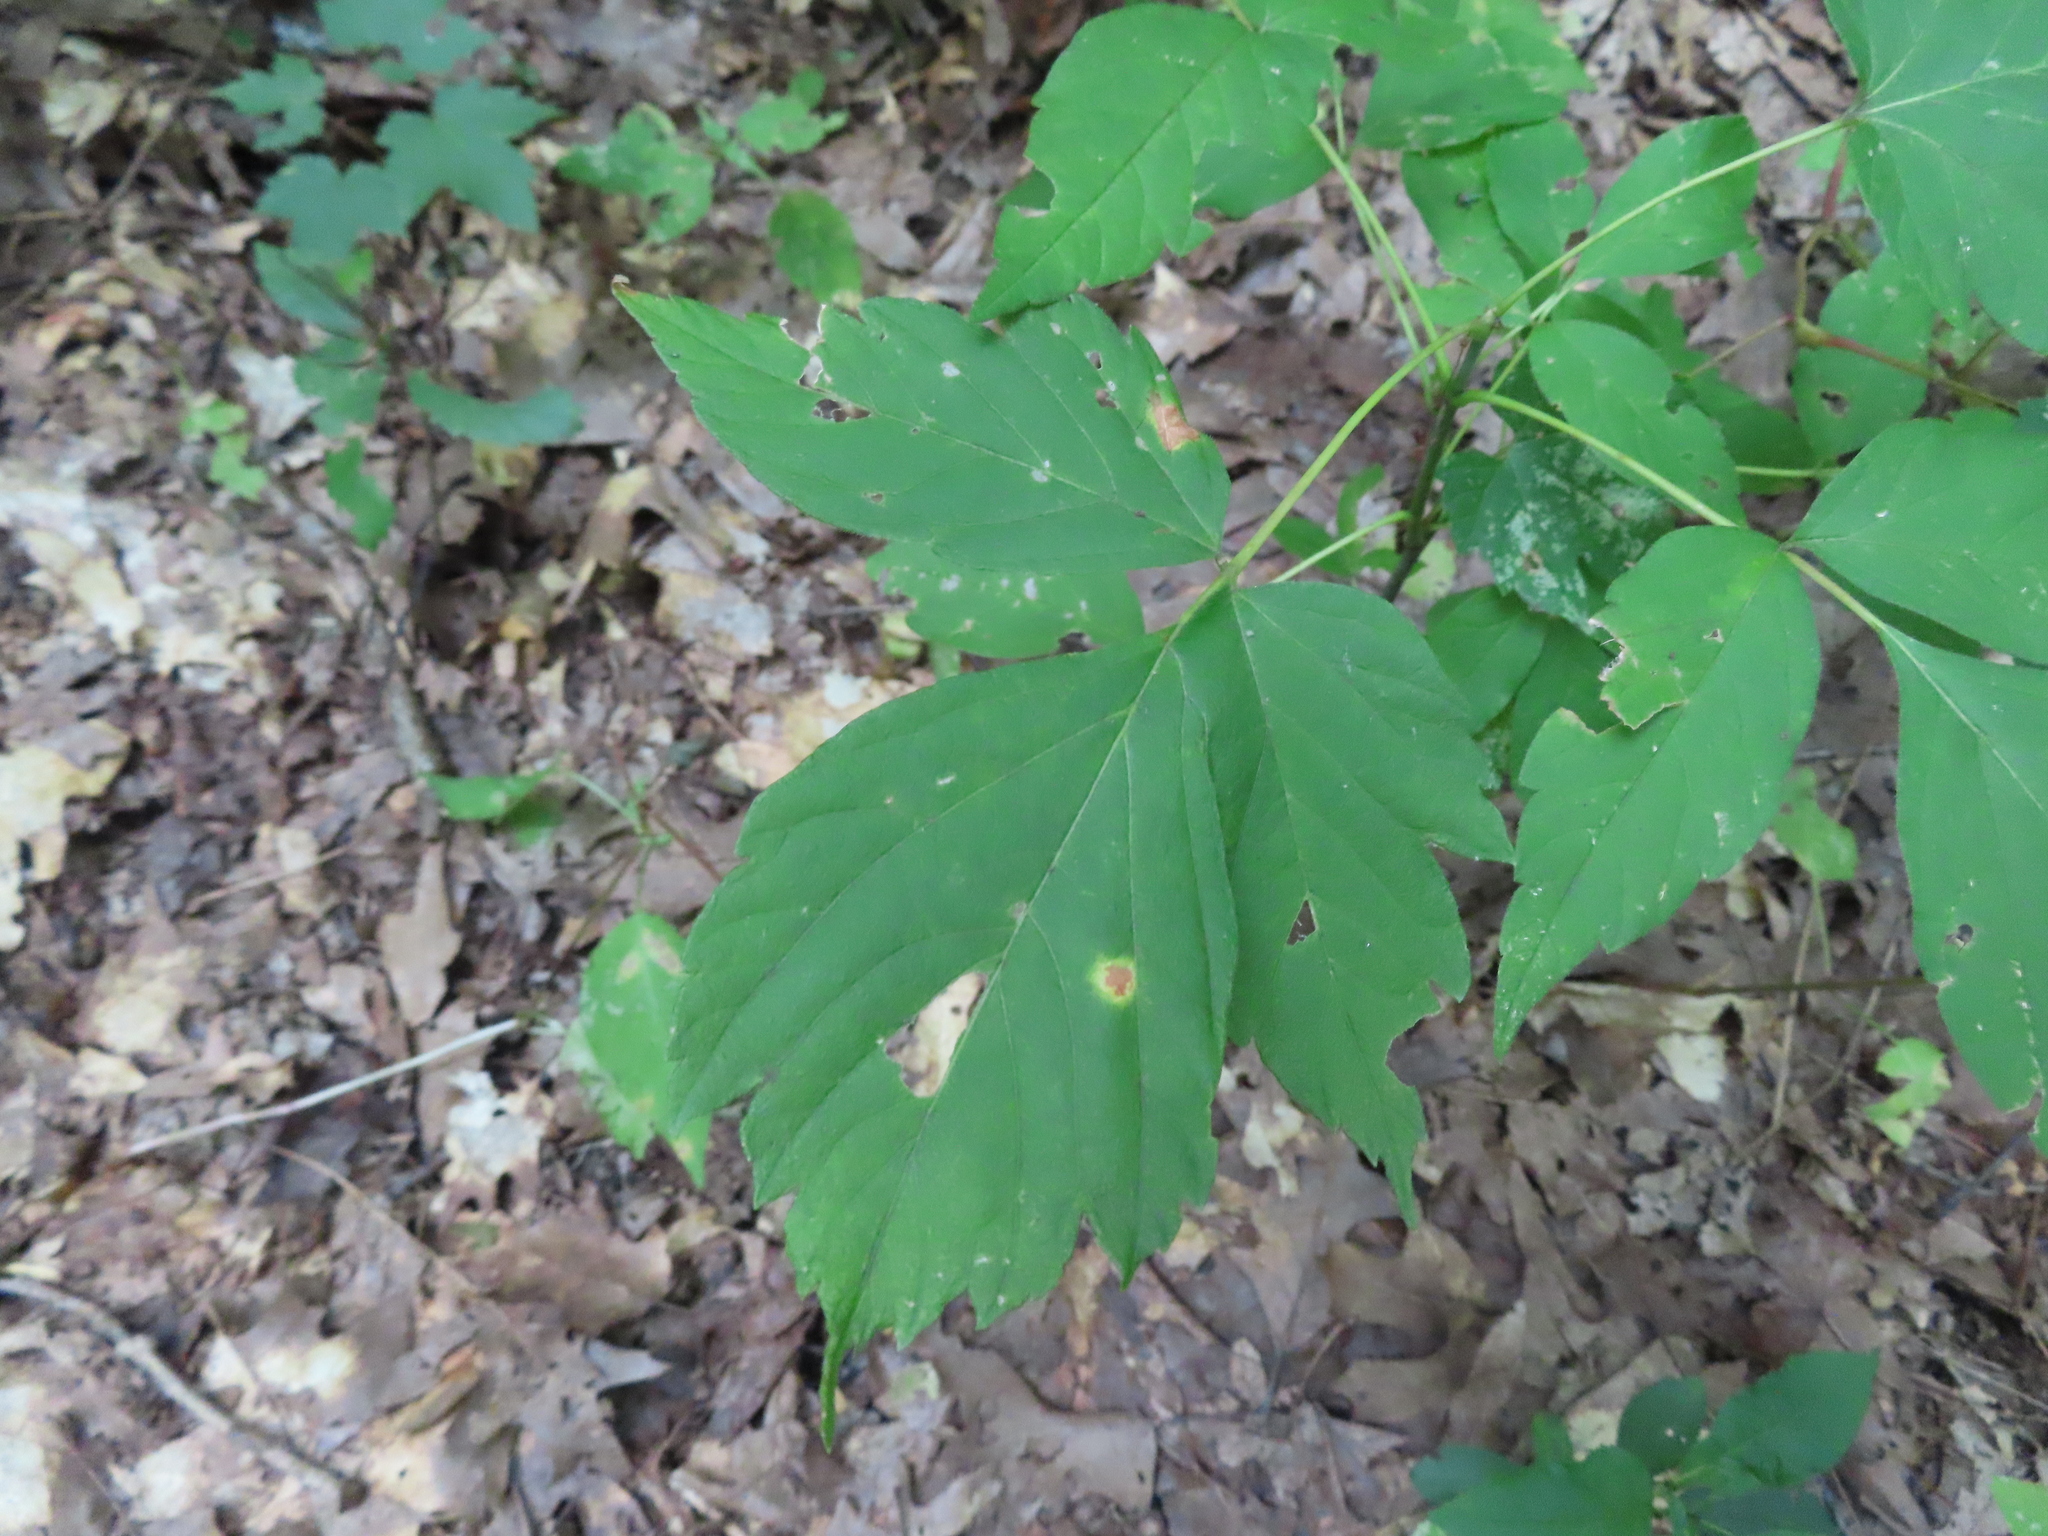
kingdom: Plantae
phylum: Tracheophyta
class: Magnoliopsida
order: Sapindales
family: Sapindaceae
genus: Acer
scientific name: Acer negundo
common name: Ashleaf maple
